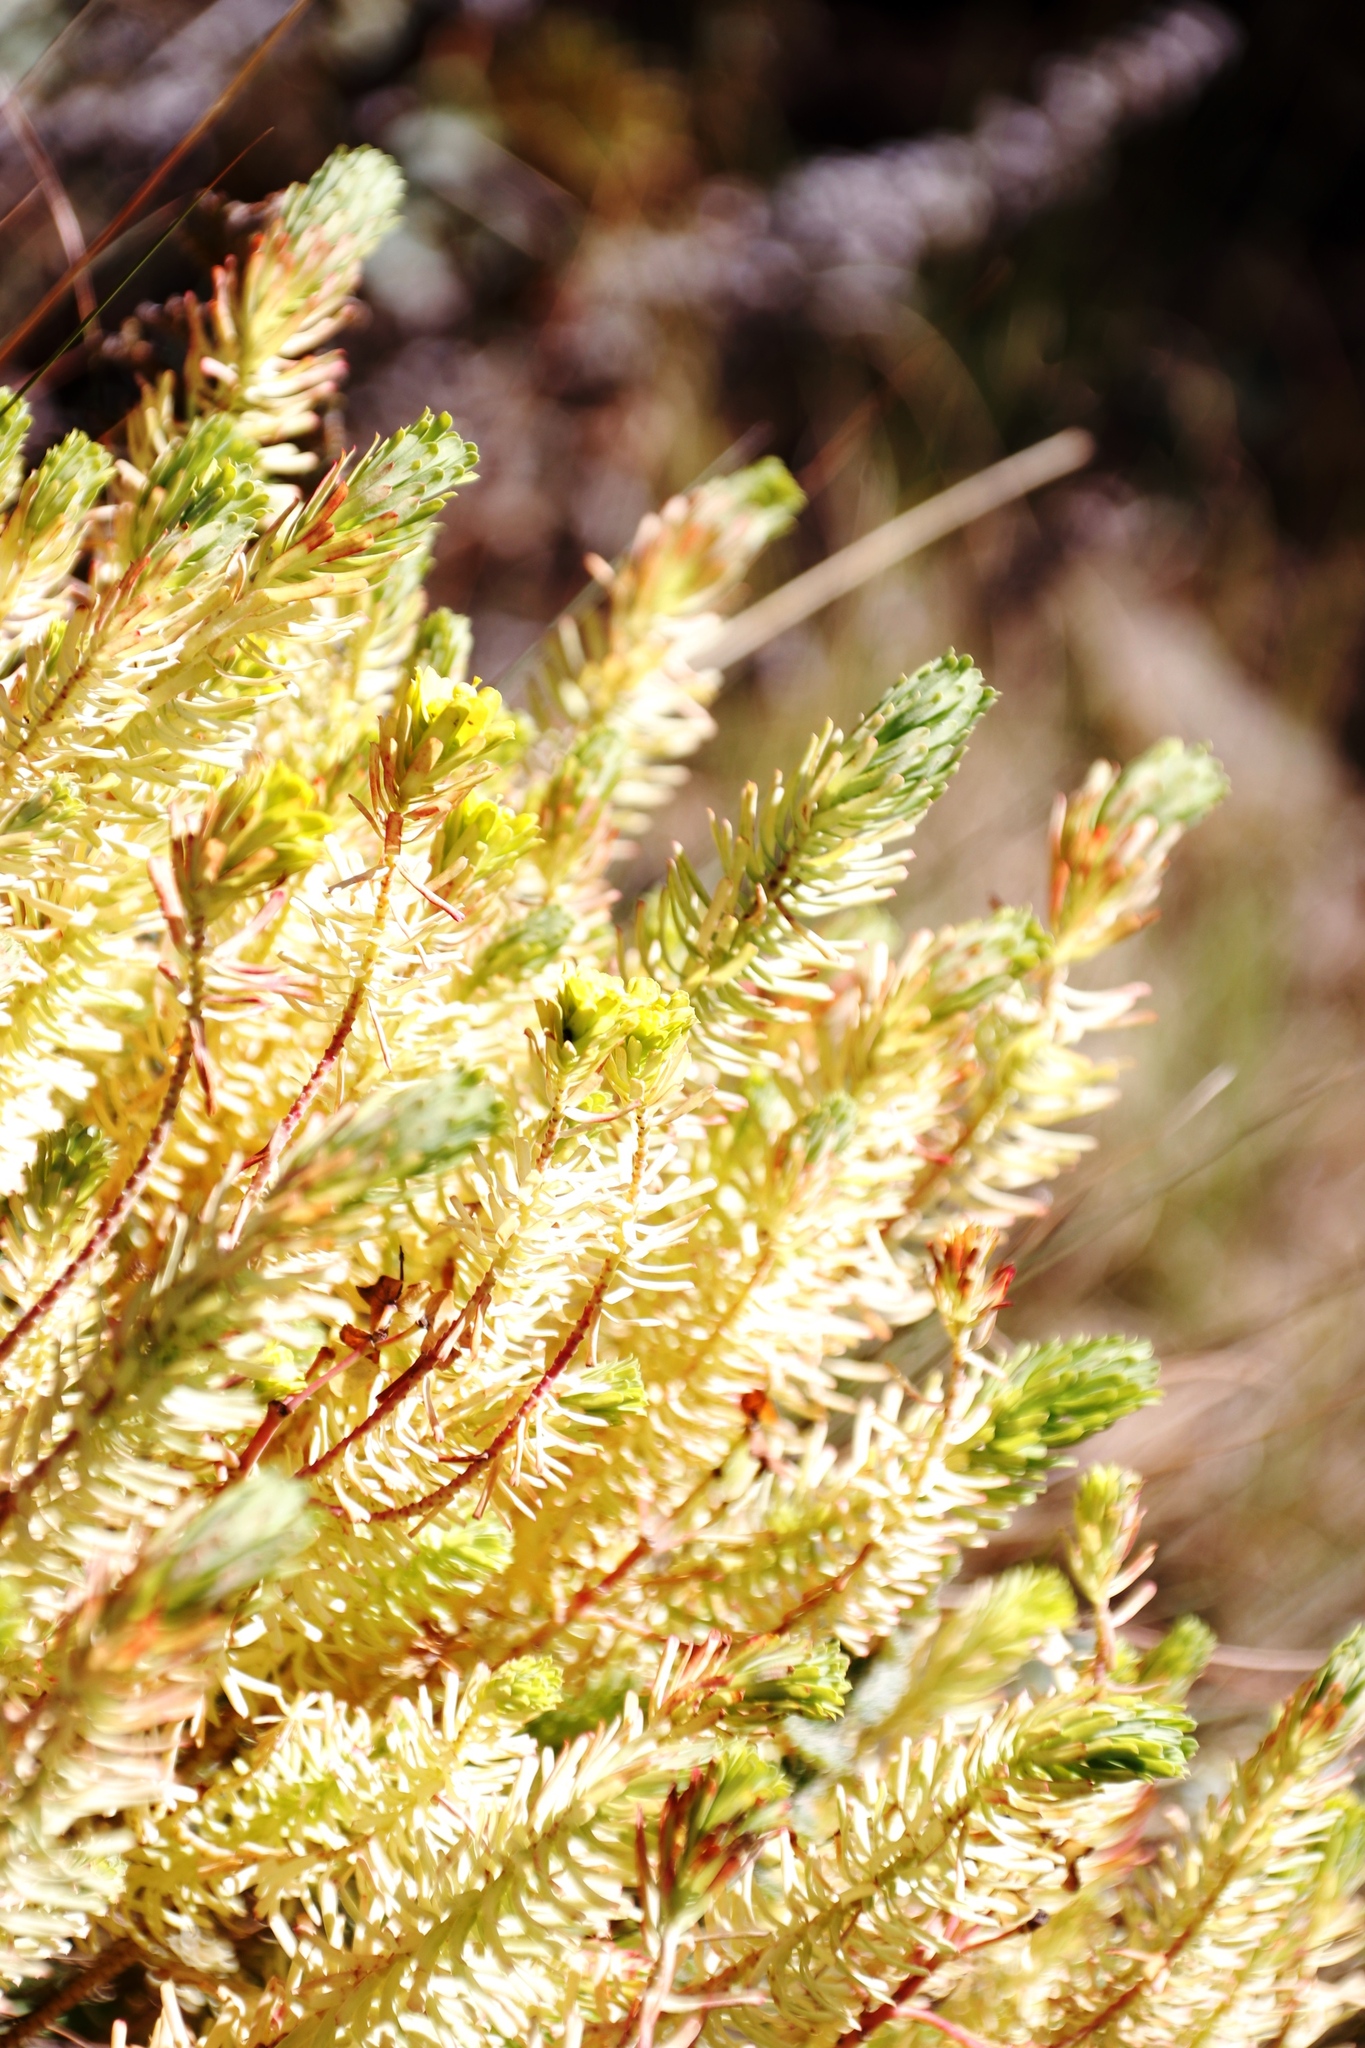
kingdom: Plantae
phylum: Tracheophyta
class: Magnoliopsida
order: Malpighiales
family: Euphorbiaceae
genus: Euphorbia
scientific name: Euphorbia natalensis
